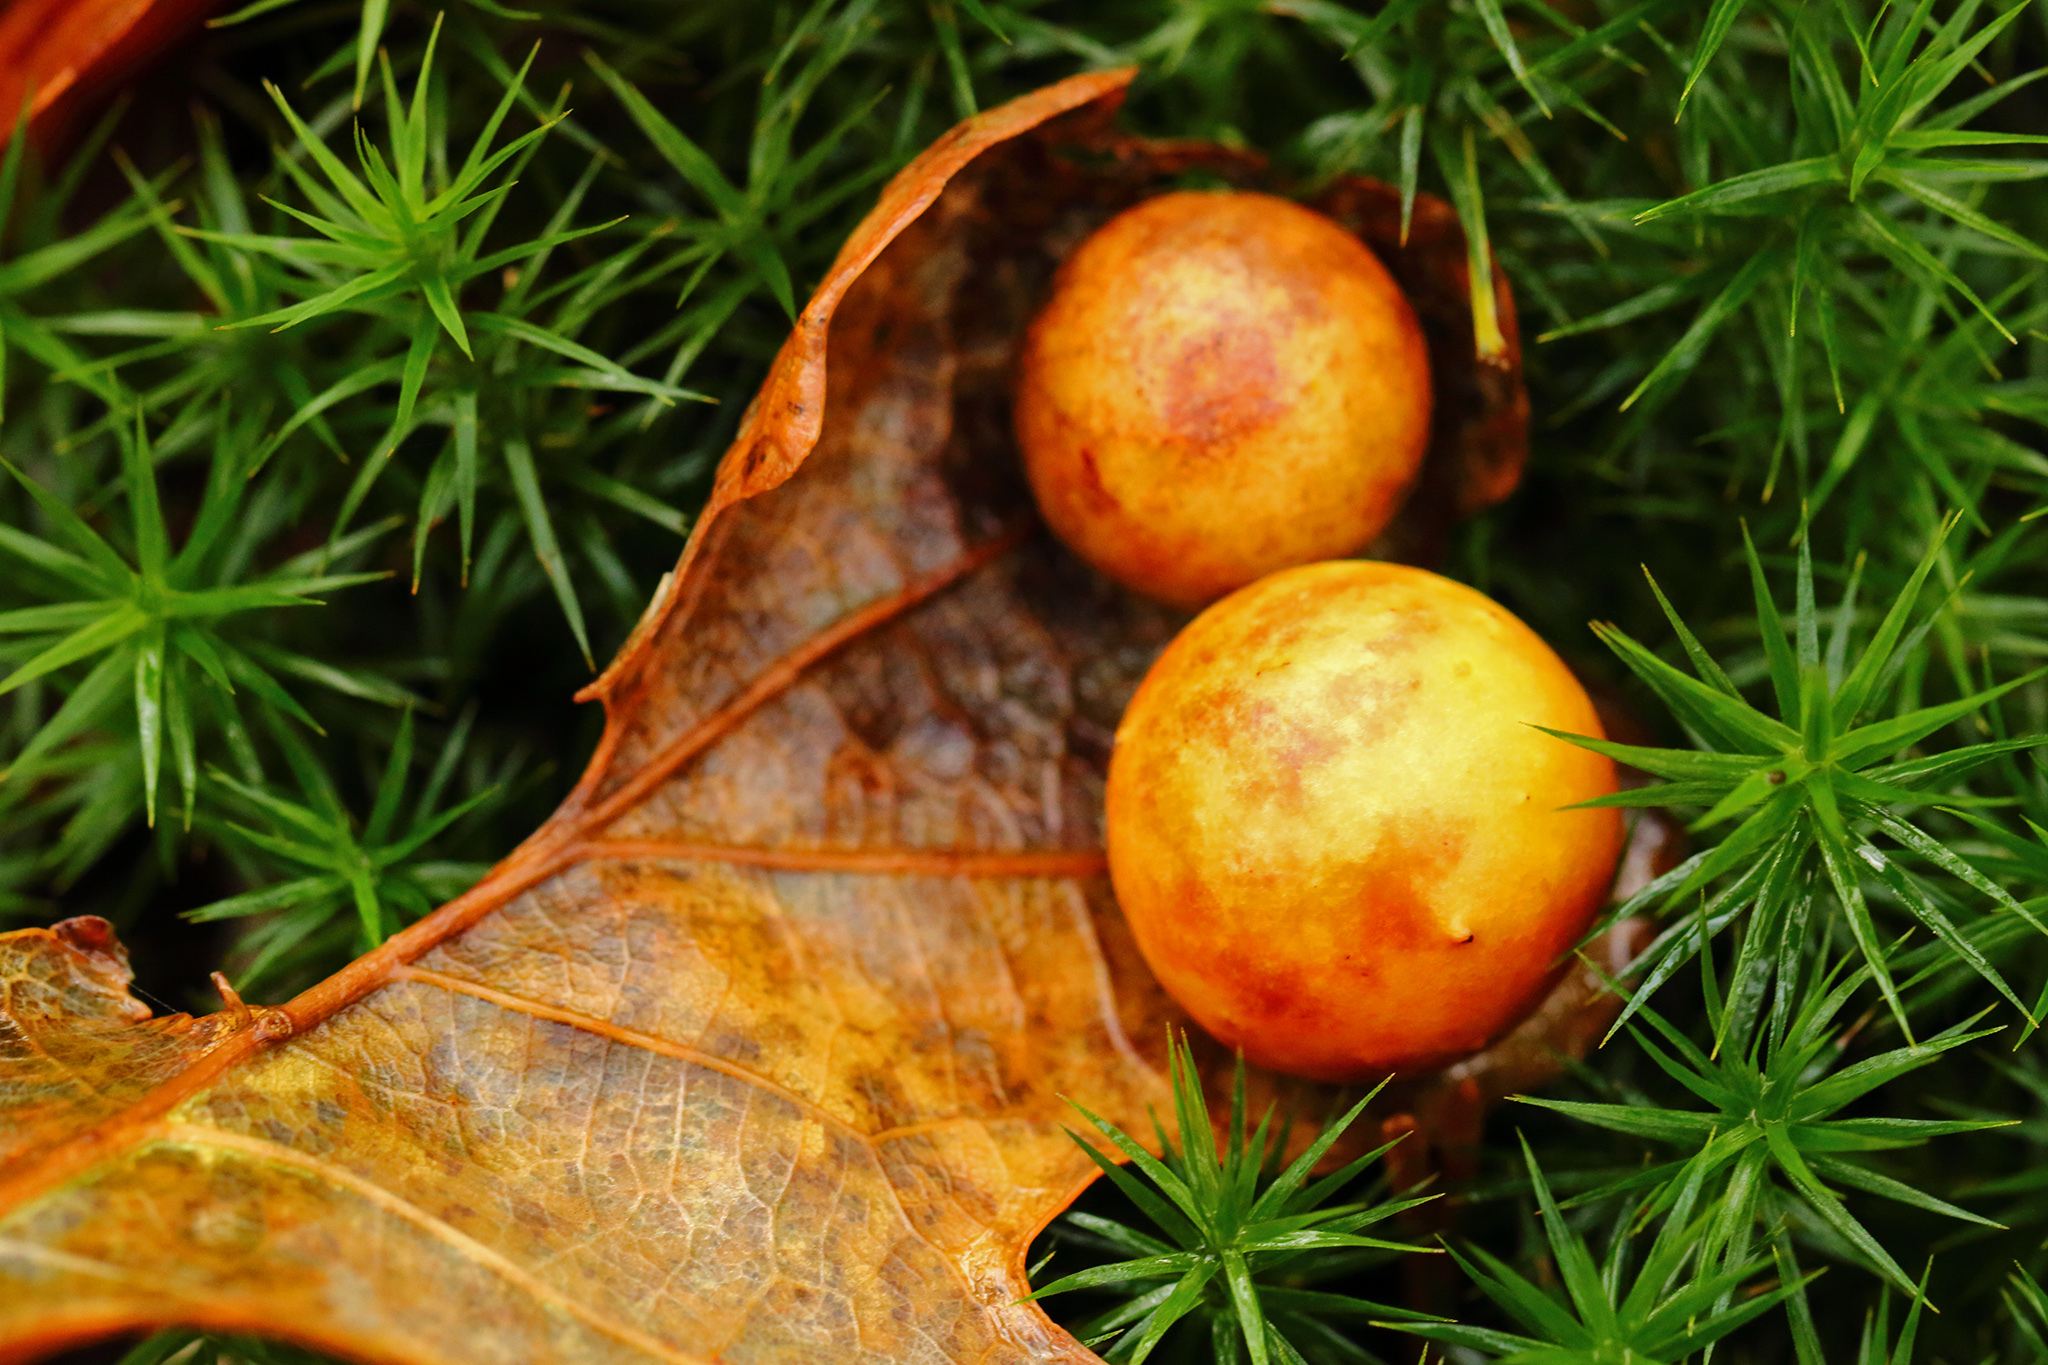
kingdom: Animalia
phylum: Arthropoda
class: Insecta
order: Hymenoptera
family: Cynipidae
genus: Cynips
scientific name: Cynips quercusfolii
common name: Cherry gall
